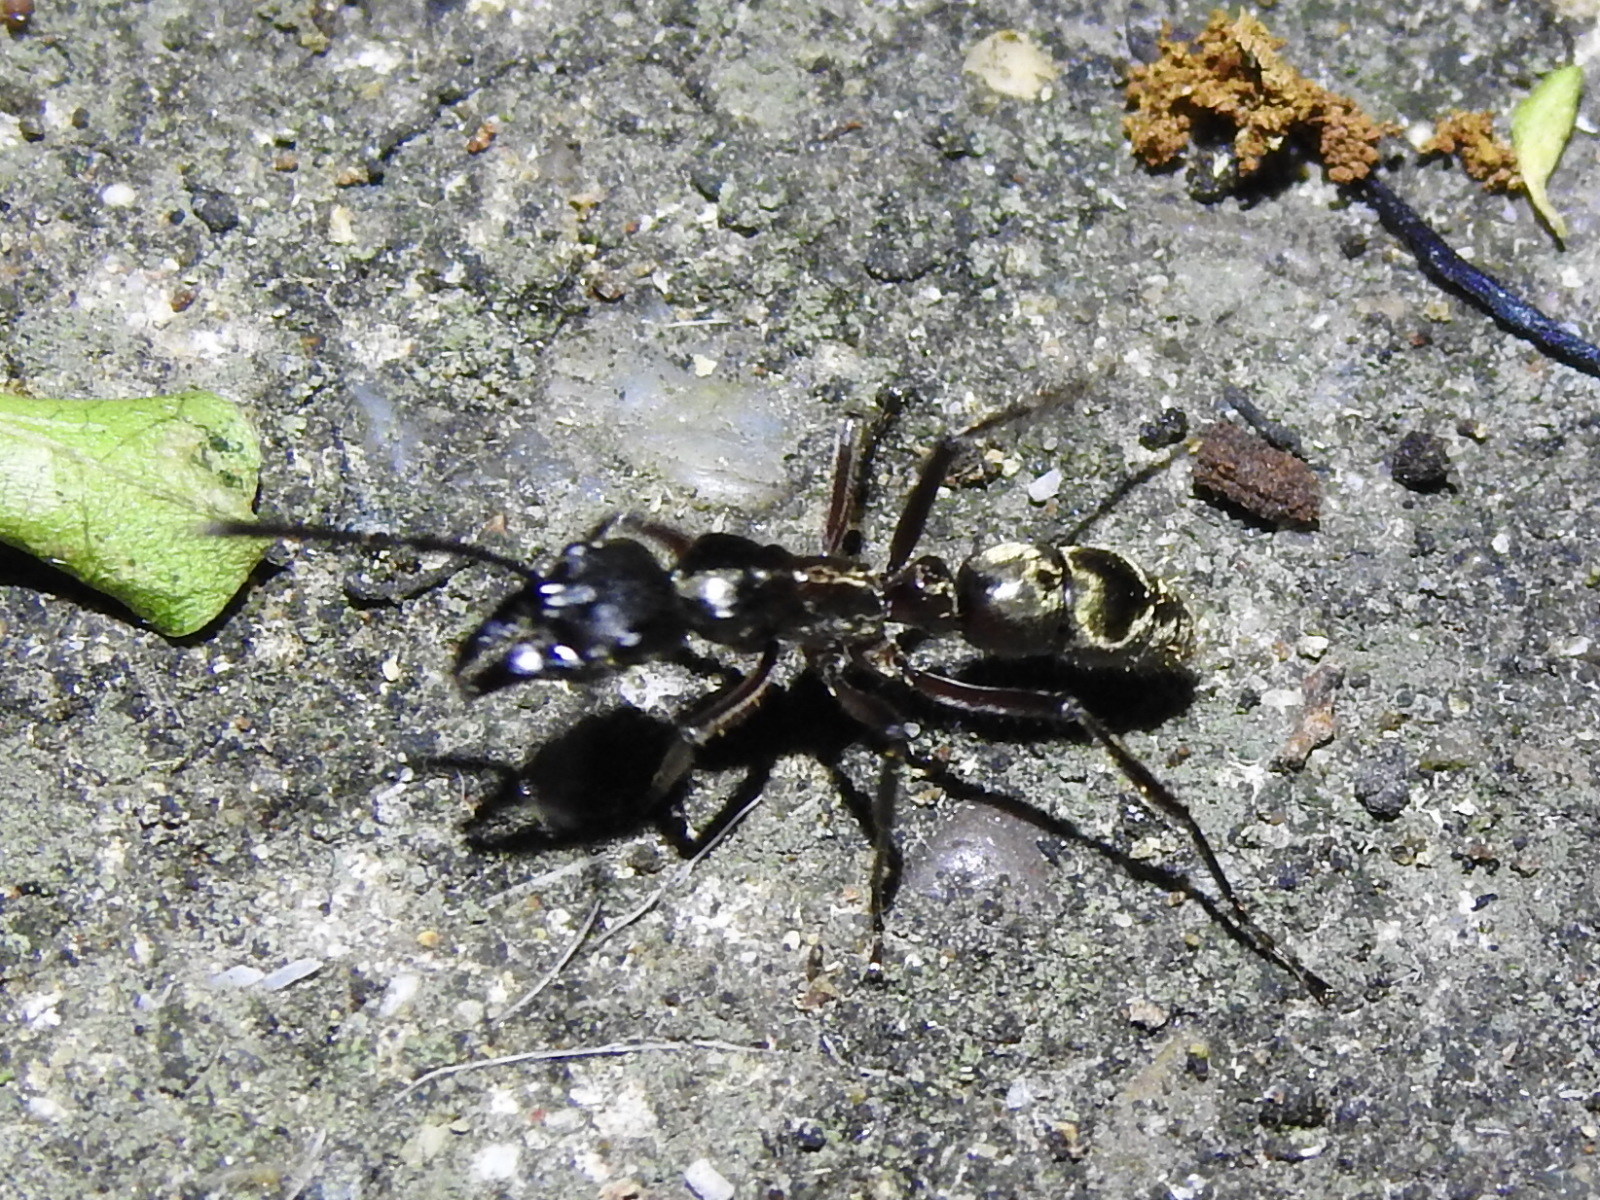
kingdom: Animalia
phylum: Arthropoda
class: Insecta
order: Hymenoptera
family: Formicidae
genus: Pachycondyla
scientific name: Pachycondyla villosa
